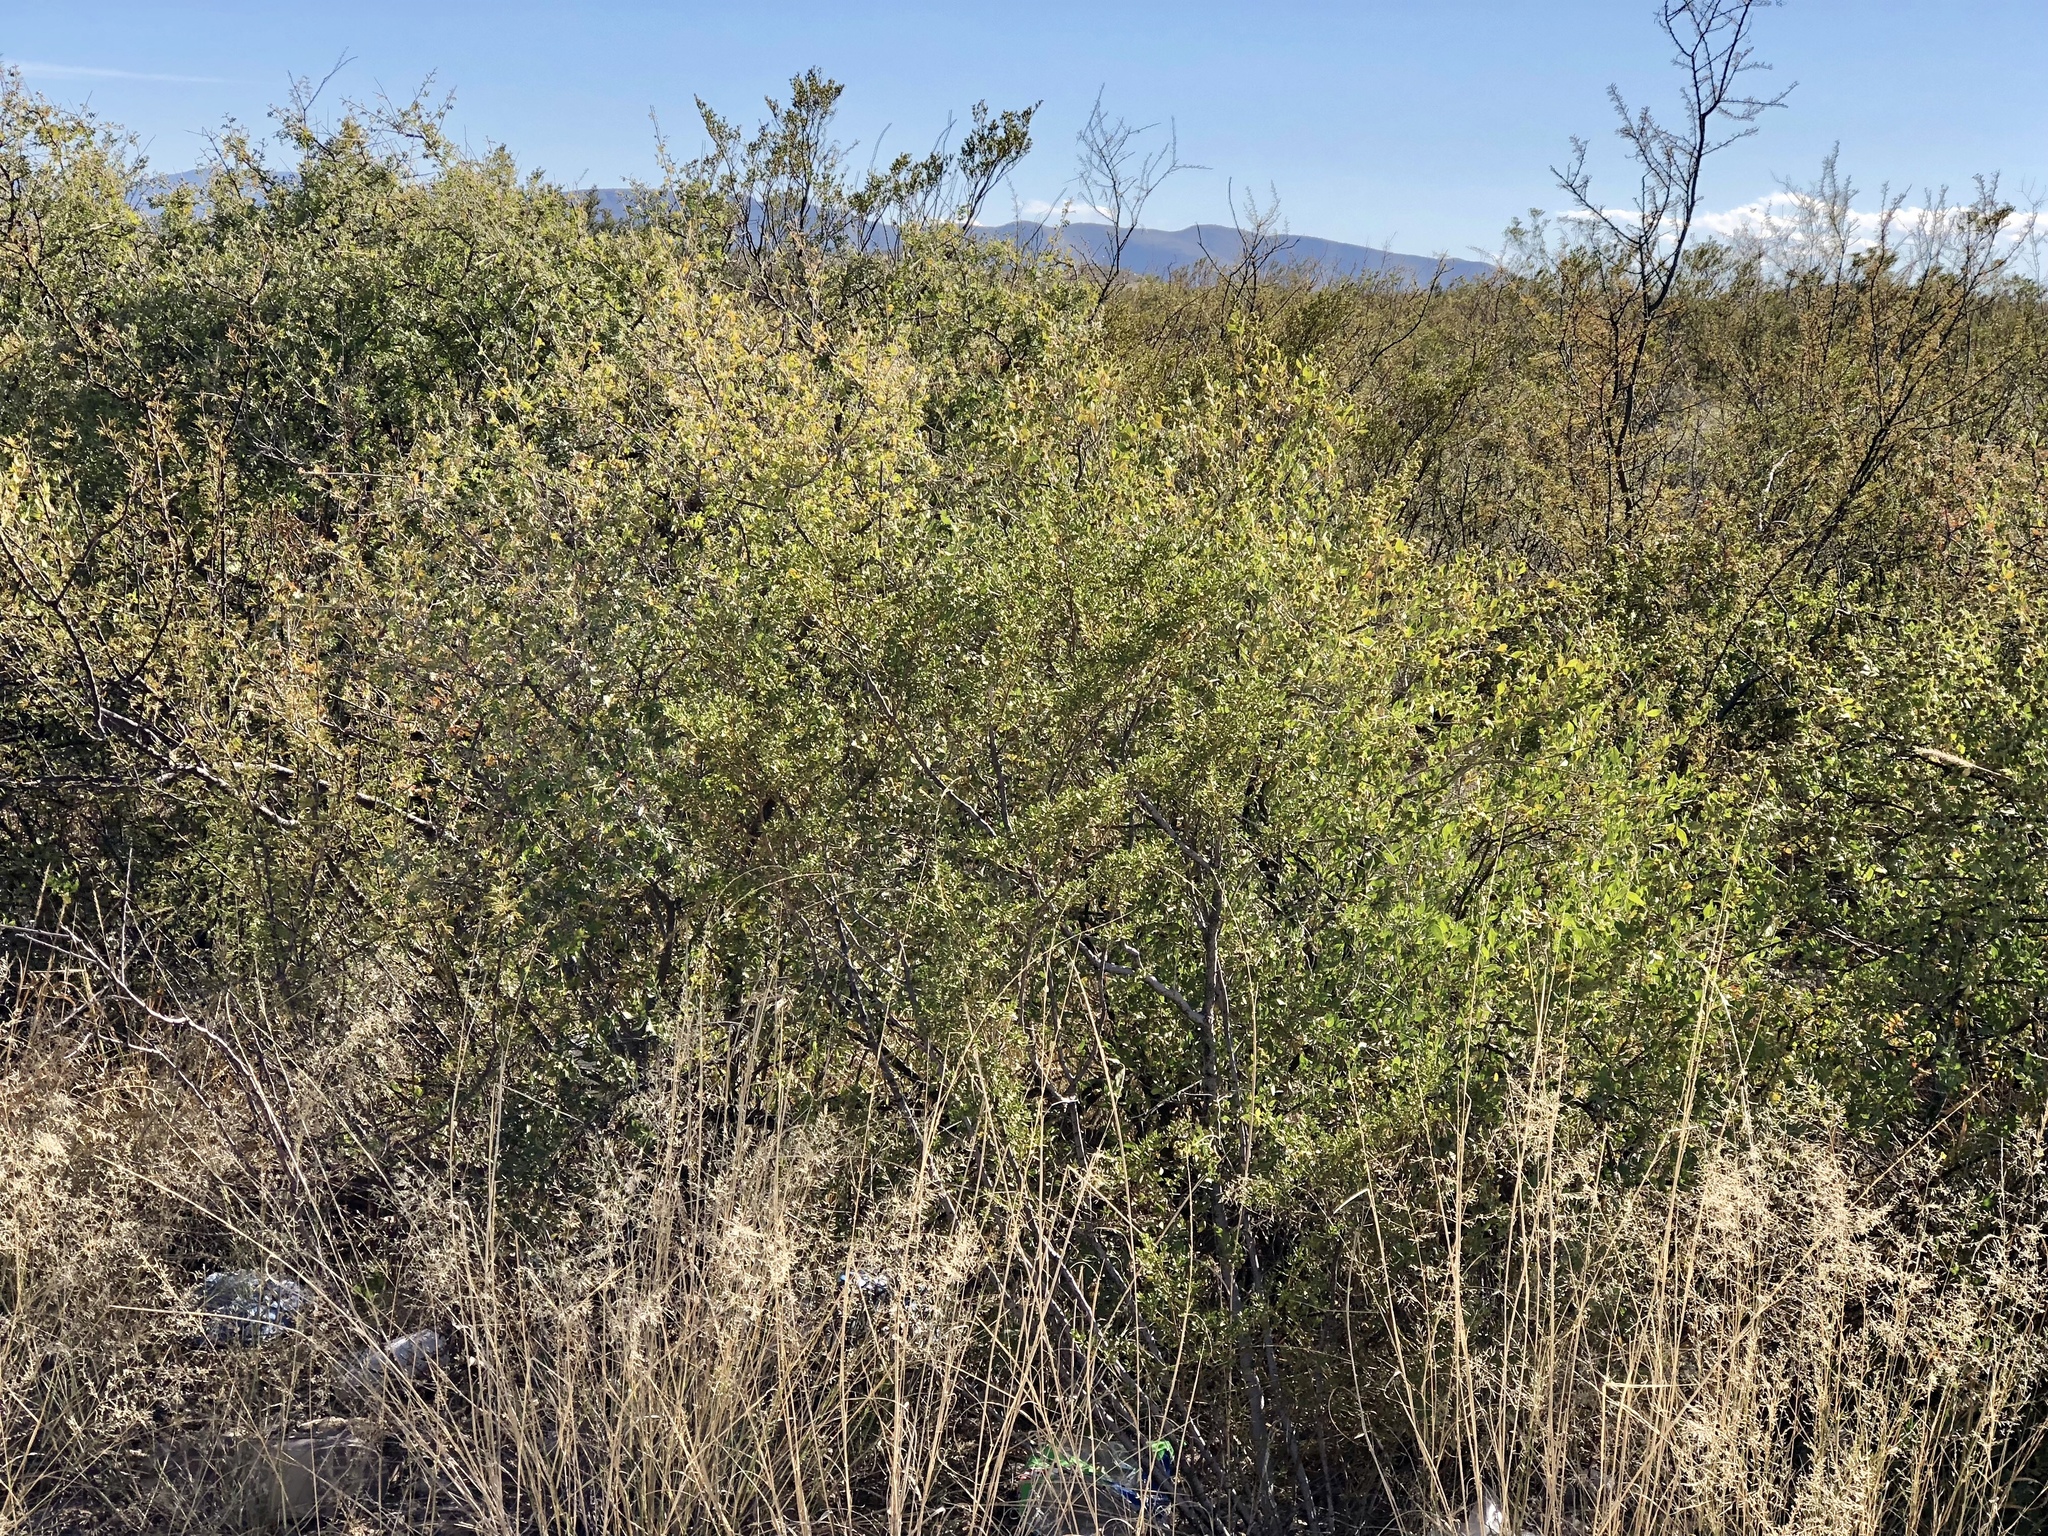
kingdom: Plantae
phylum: Tracheophyta
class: Magnoliopsida
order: Asterales
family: Asteraceae
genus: Flourensia
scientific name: Flourensia cernua
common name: Varnishbush
